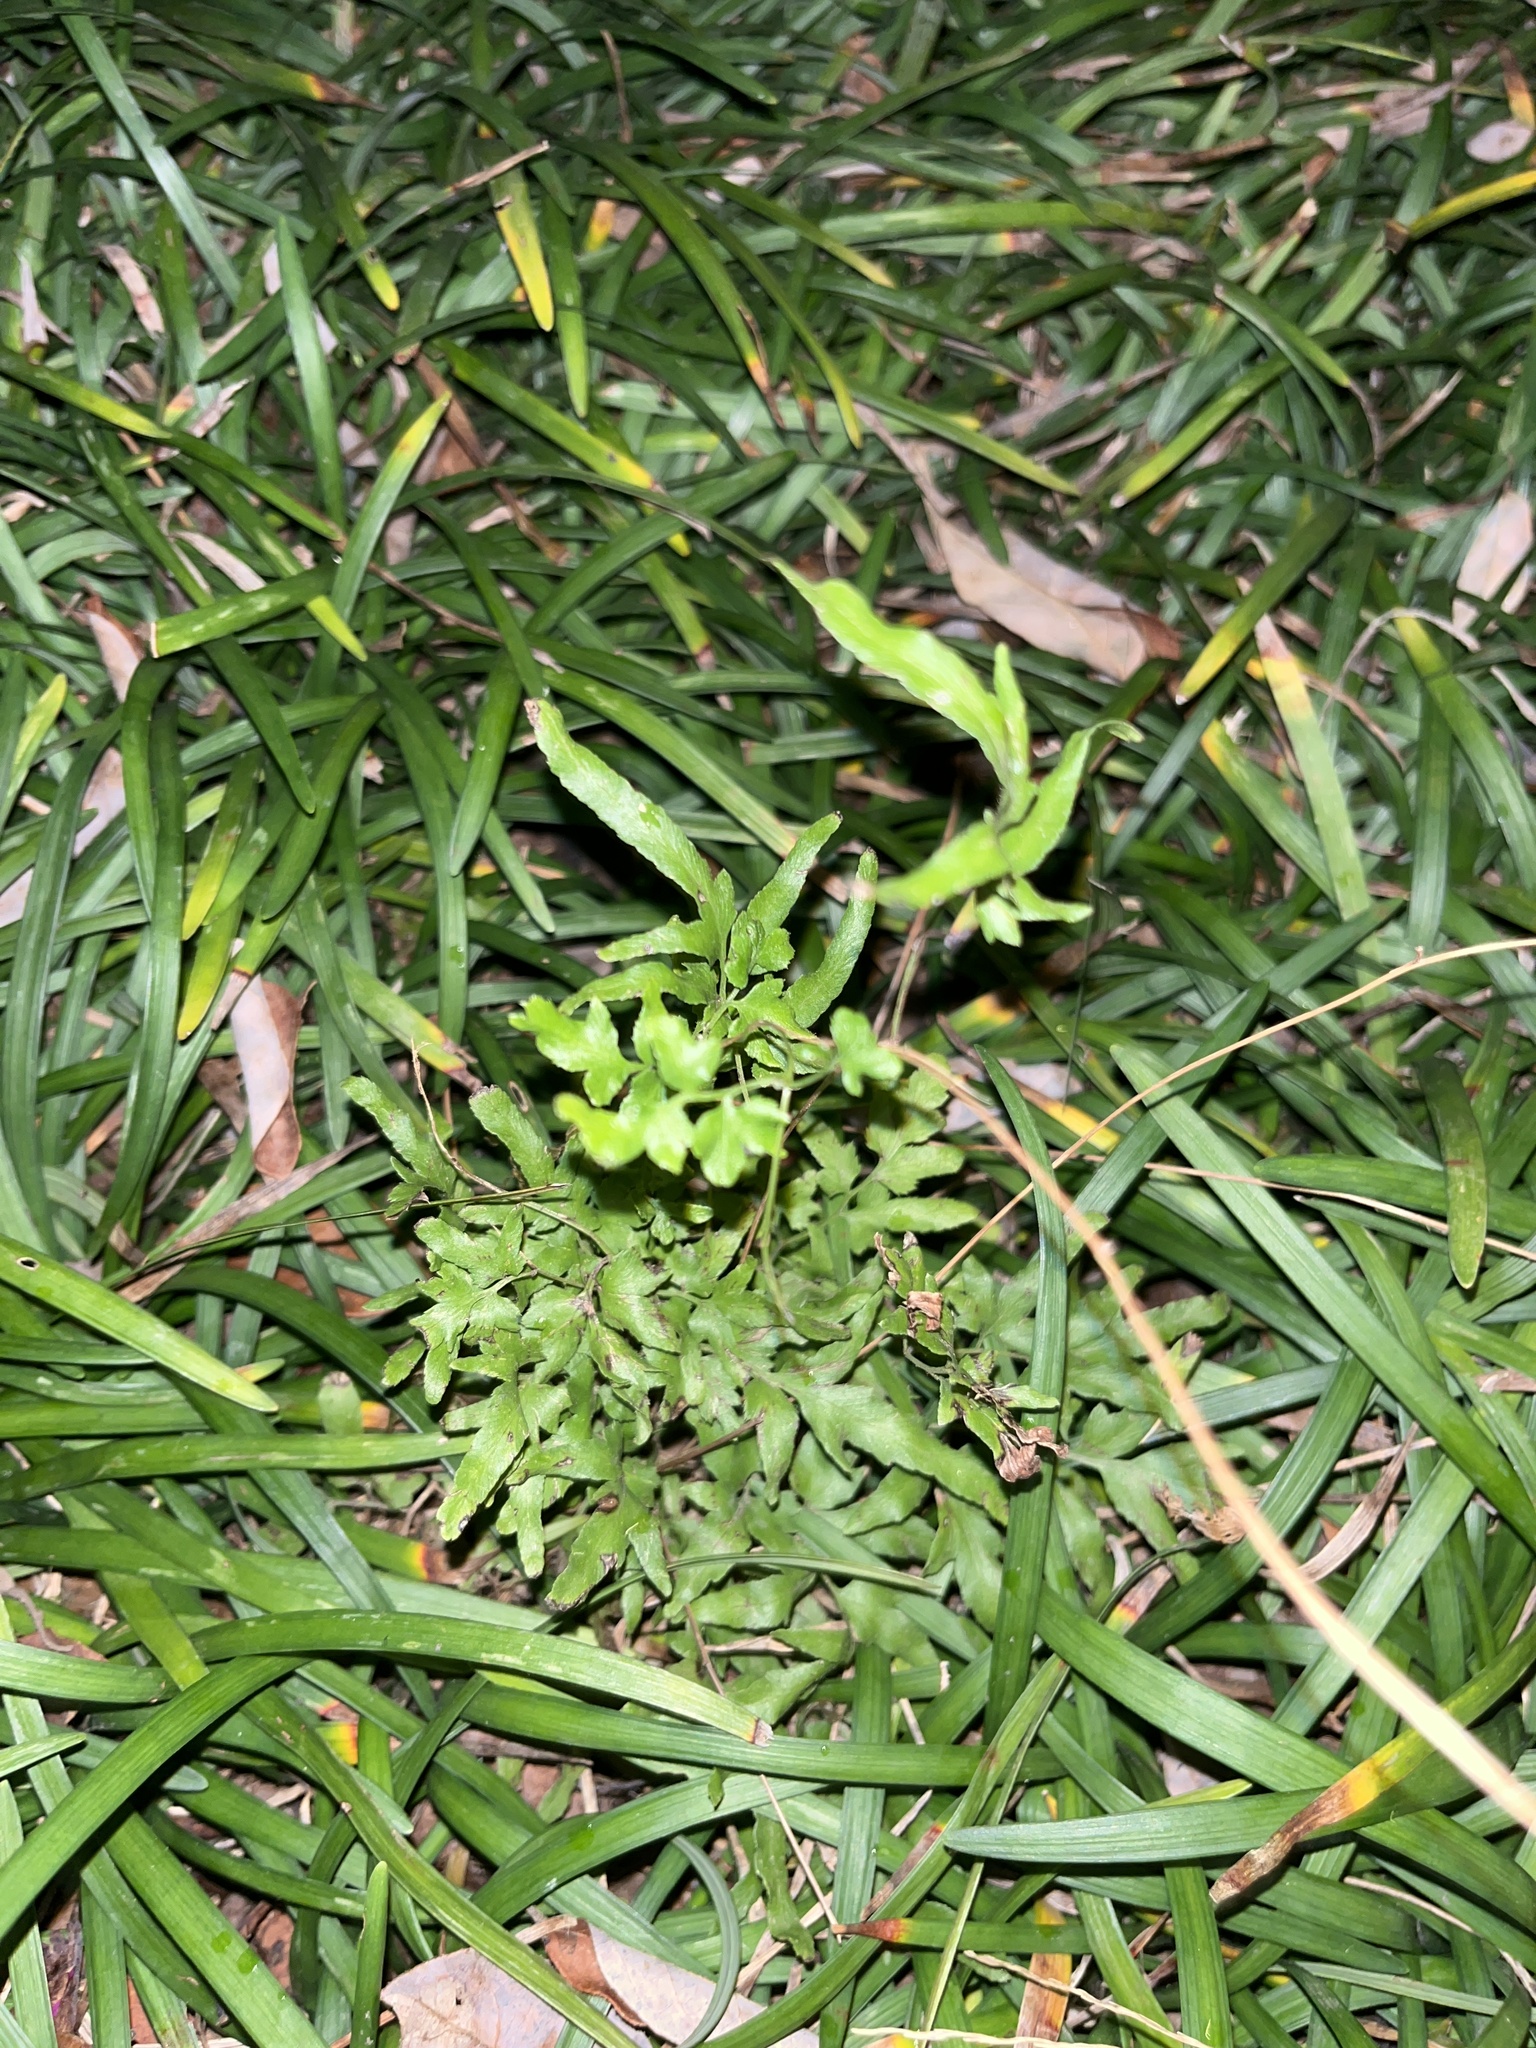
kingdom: Plantae
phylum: Tracheophyta
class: Polypodiopsida
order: Schizaeales
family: Lygodiaceae
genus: Lygodium
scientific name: Lygodium japonicum
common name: Japanese climbing fern
